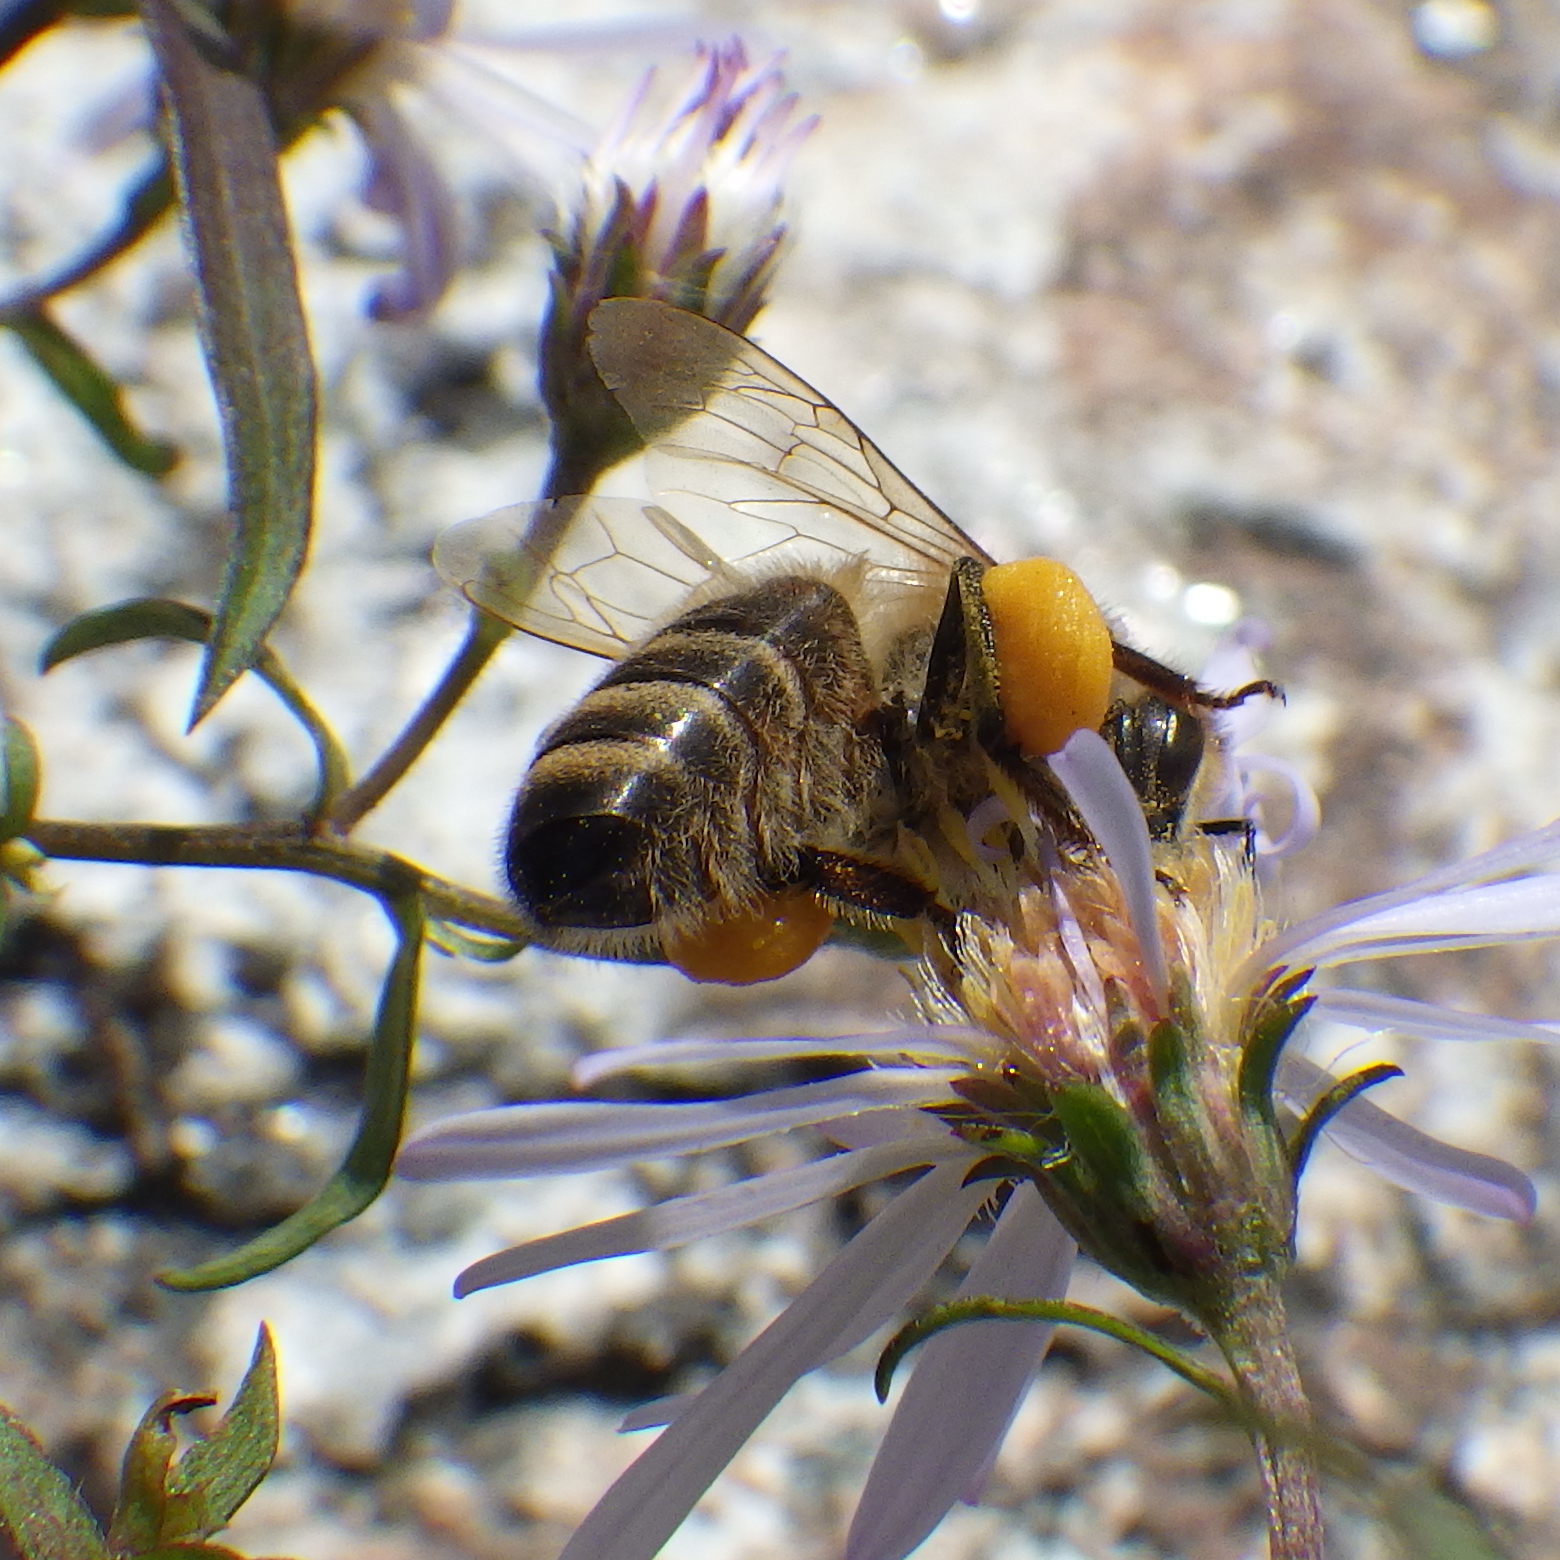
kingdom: Animalia
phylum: Arthropoda
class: Insecta
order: Hymenoptera
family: Apidae
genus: Apis
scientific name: Apis mellifera
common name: Honey bee
